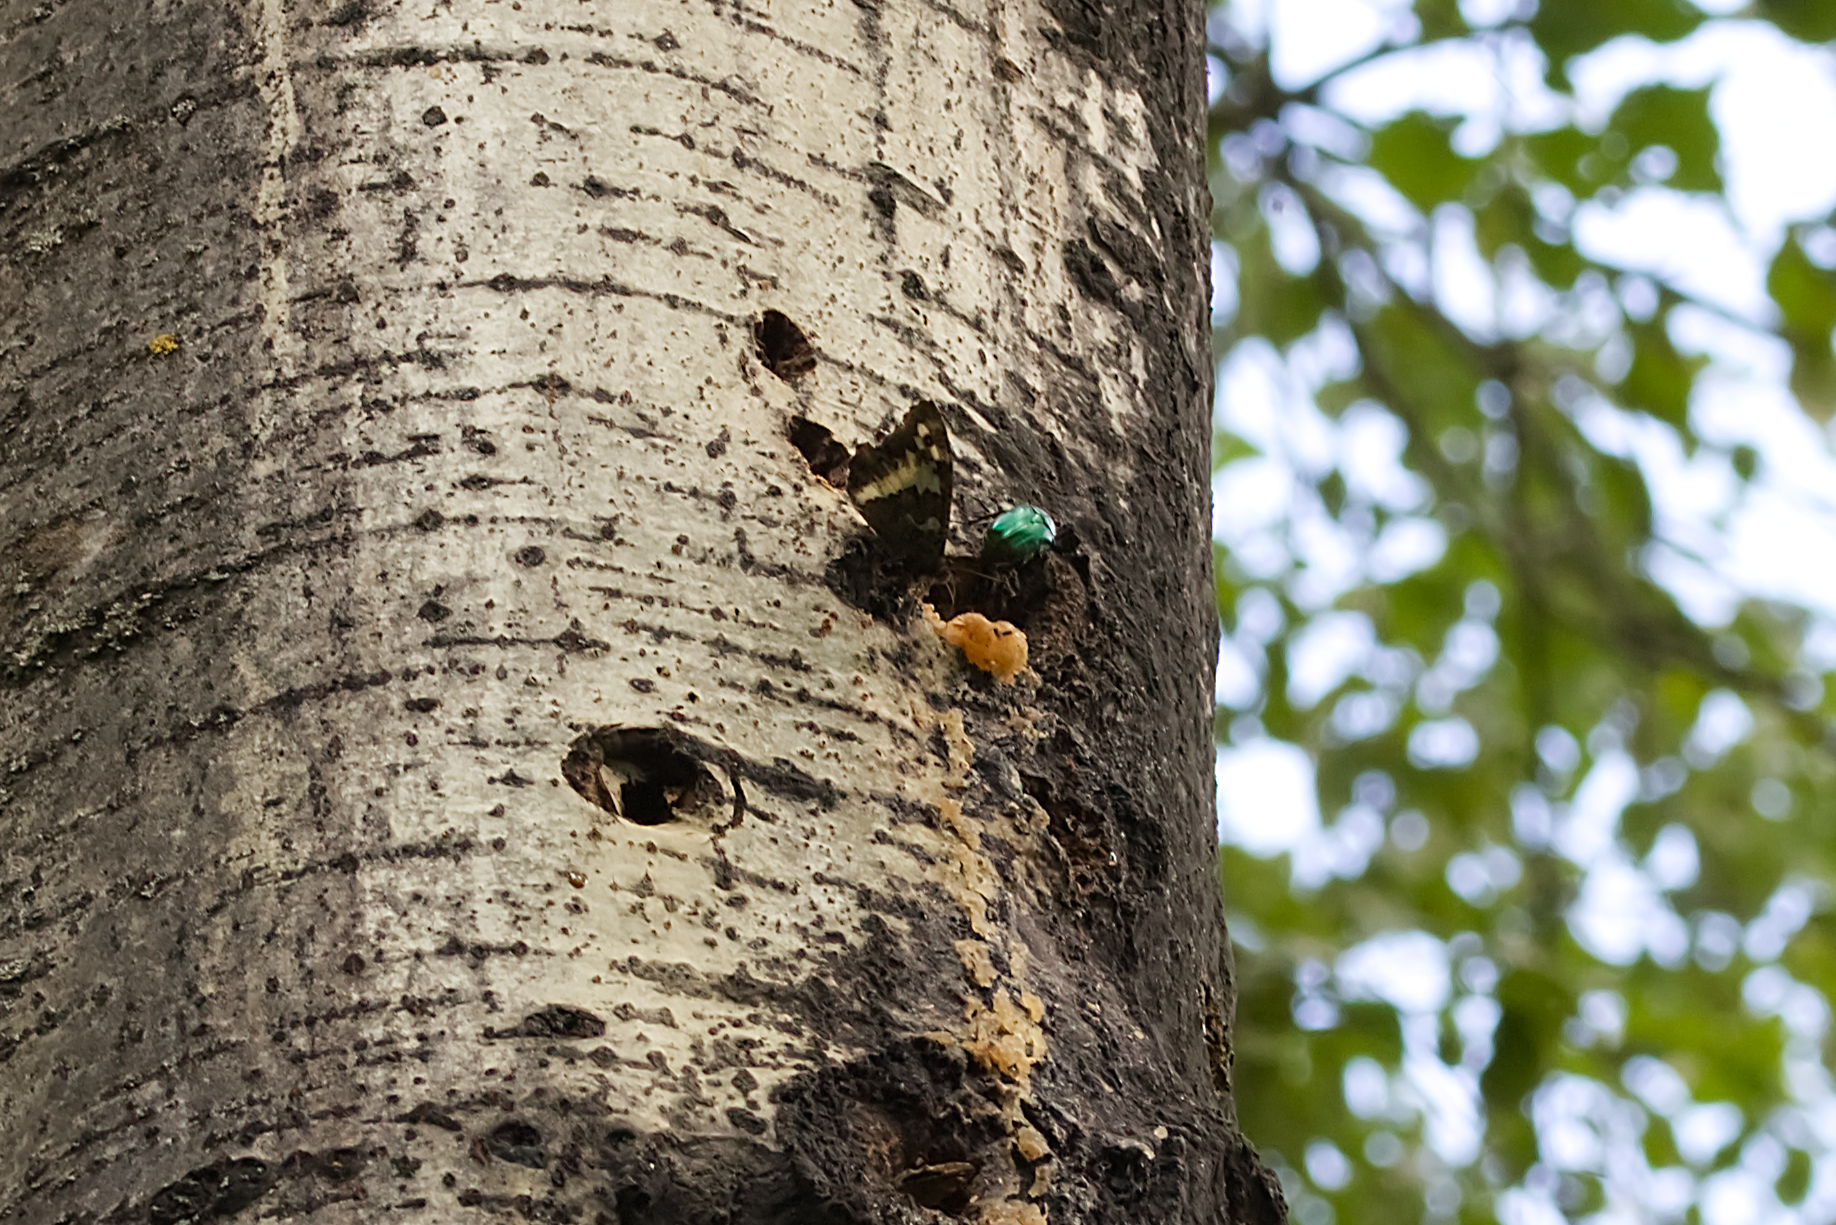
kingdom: Animalia
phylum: Arthropoda
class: Insecta
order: Lepidoptera
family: Lycaenidae
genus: Loweia
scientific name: Loweia tityrus
